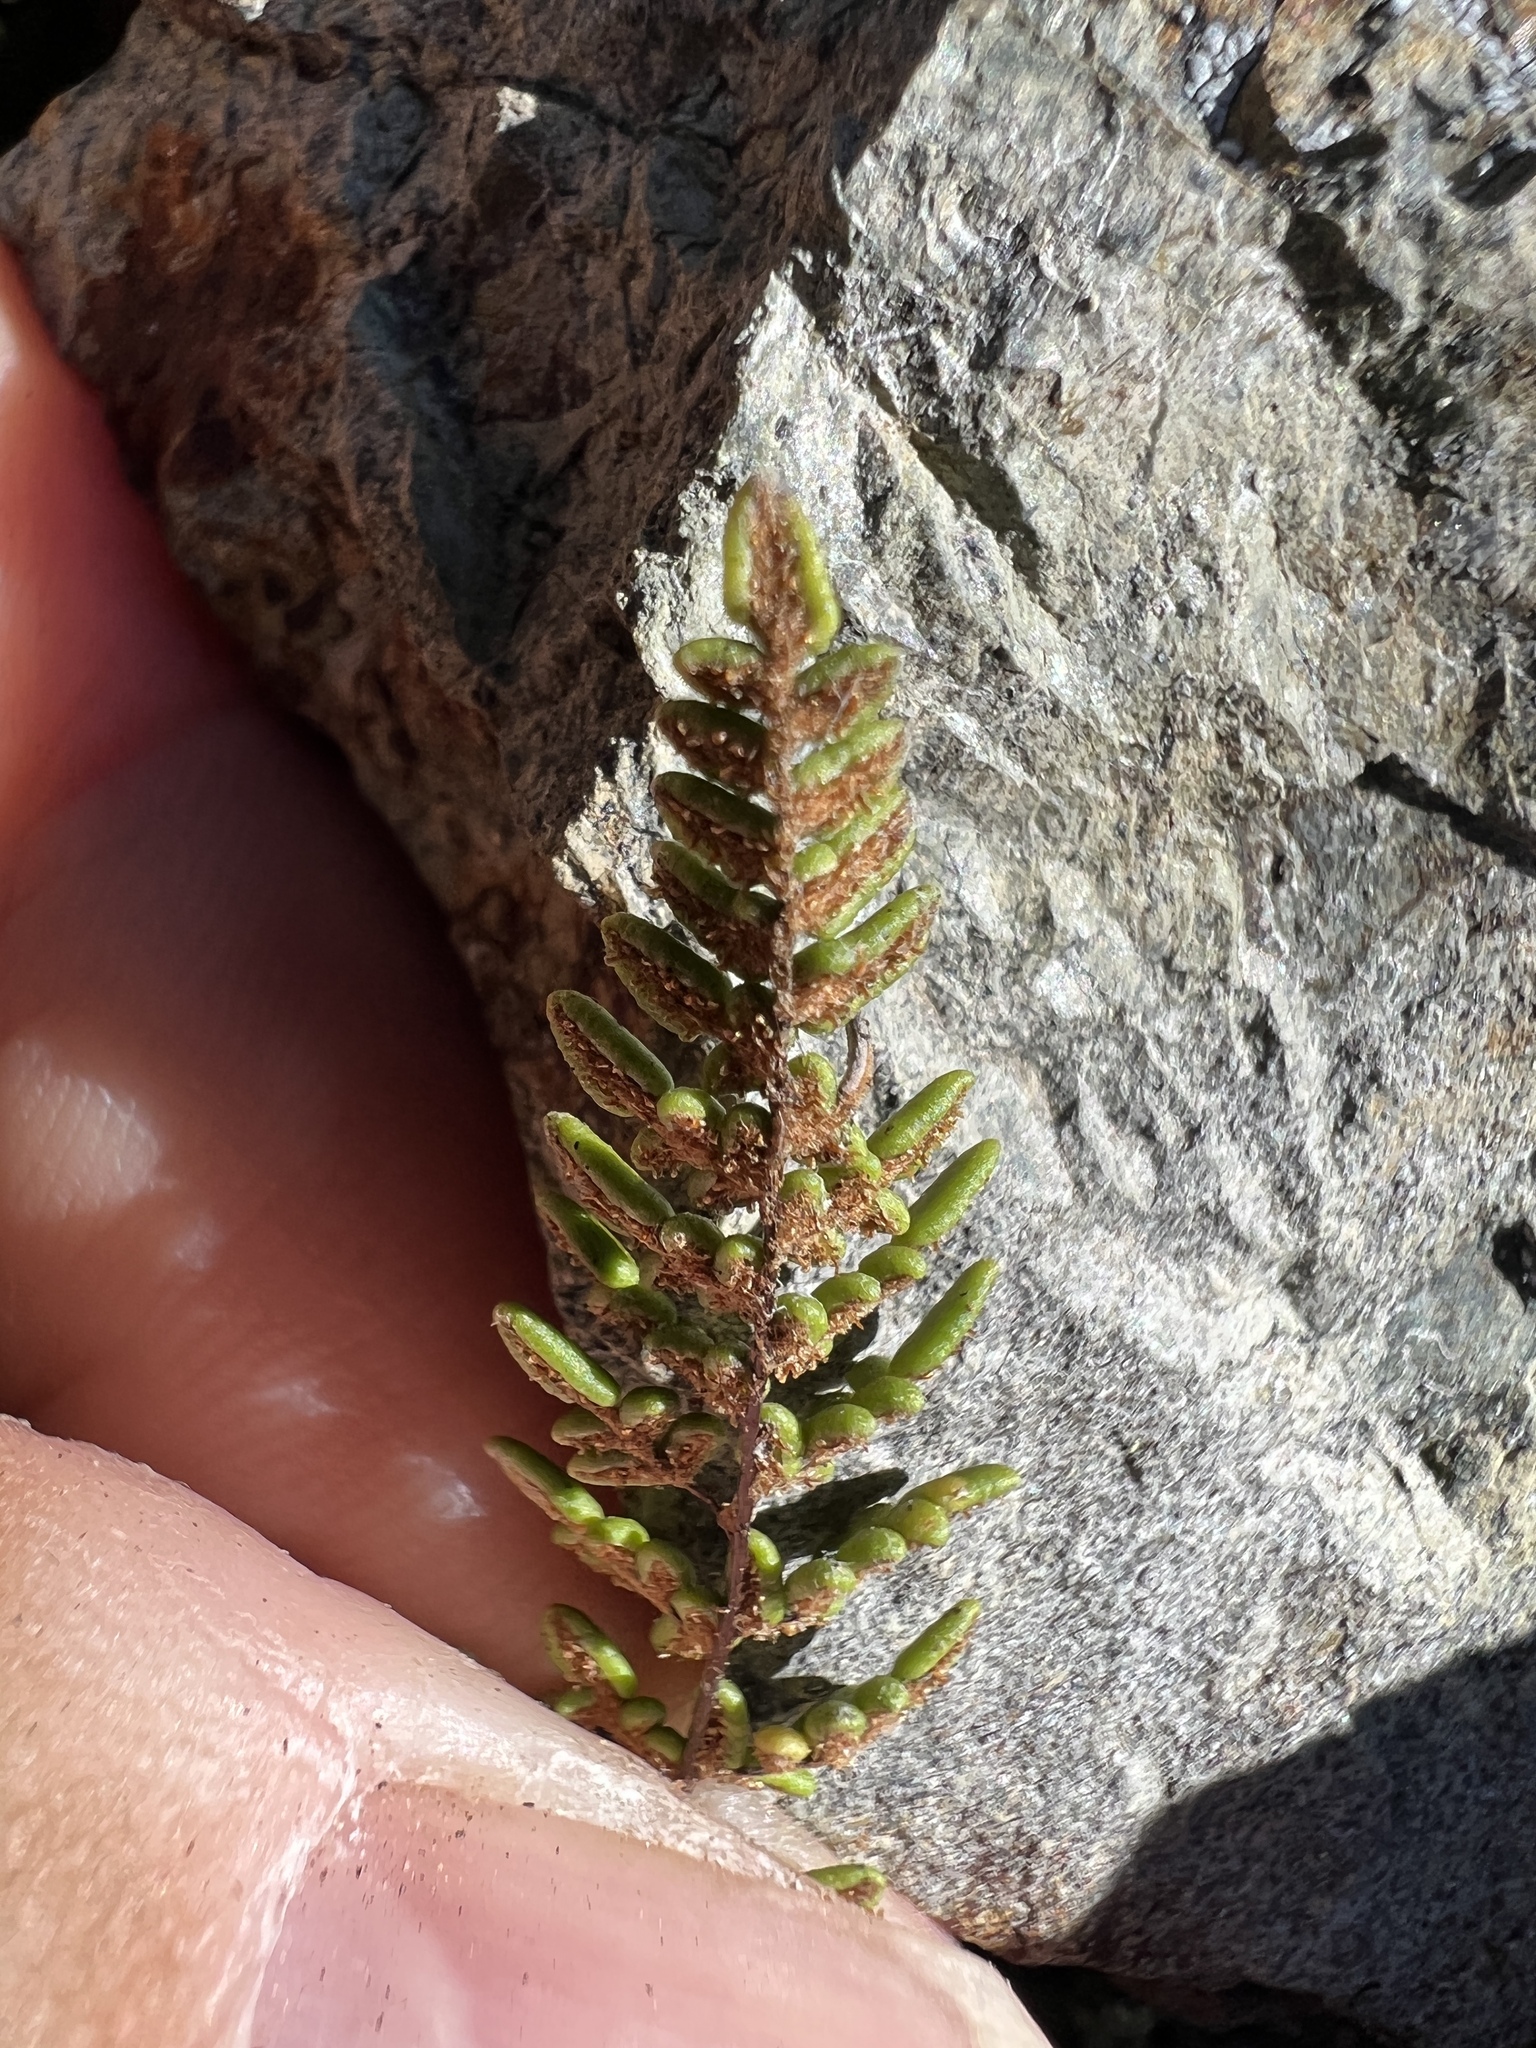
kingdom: Plantae
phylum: Tracheophyta
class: Polypodiopsida
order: Polypodiales
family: Pteridaceae
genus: Myriopteris
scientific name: Myriopteris gracillima
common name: Lace fern
